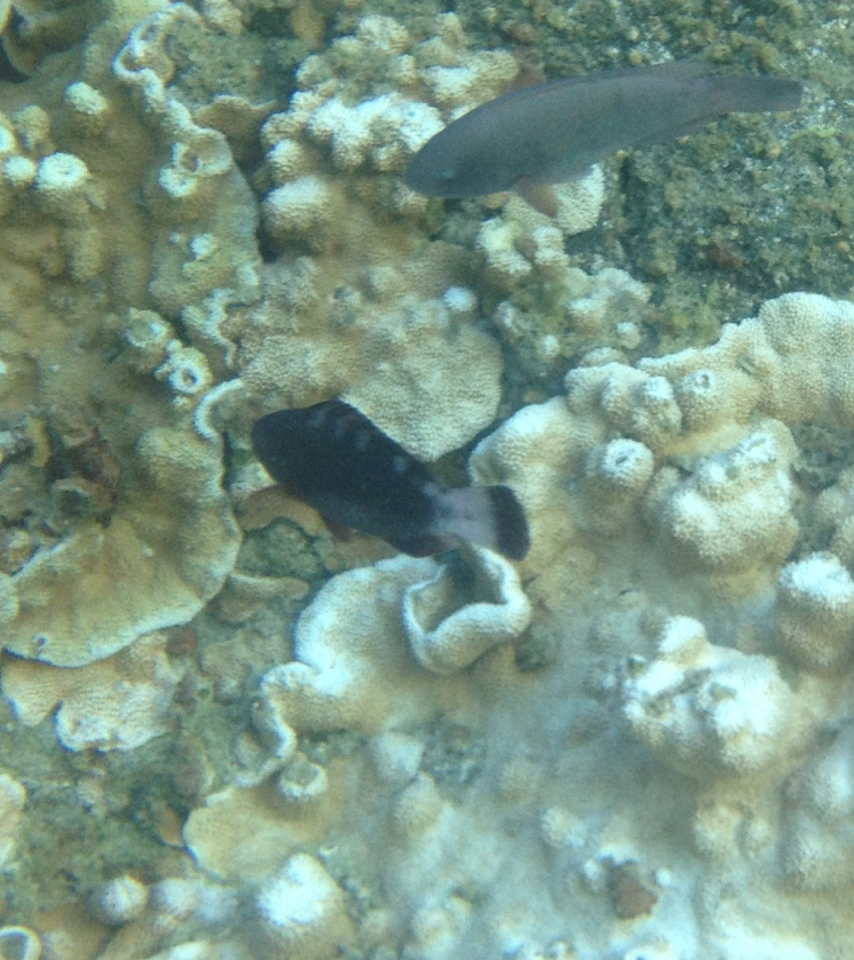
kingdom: Animalia
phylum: Chordata
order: Perciformes
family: Scaridae
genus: Chlorurus
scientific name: Chlorurus perspicillatus
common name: Spectacled parrotfish
